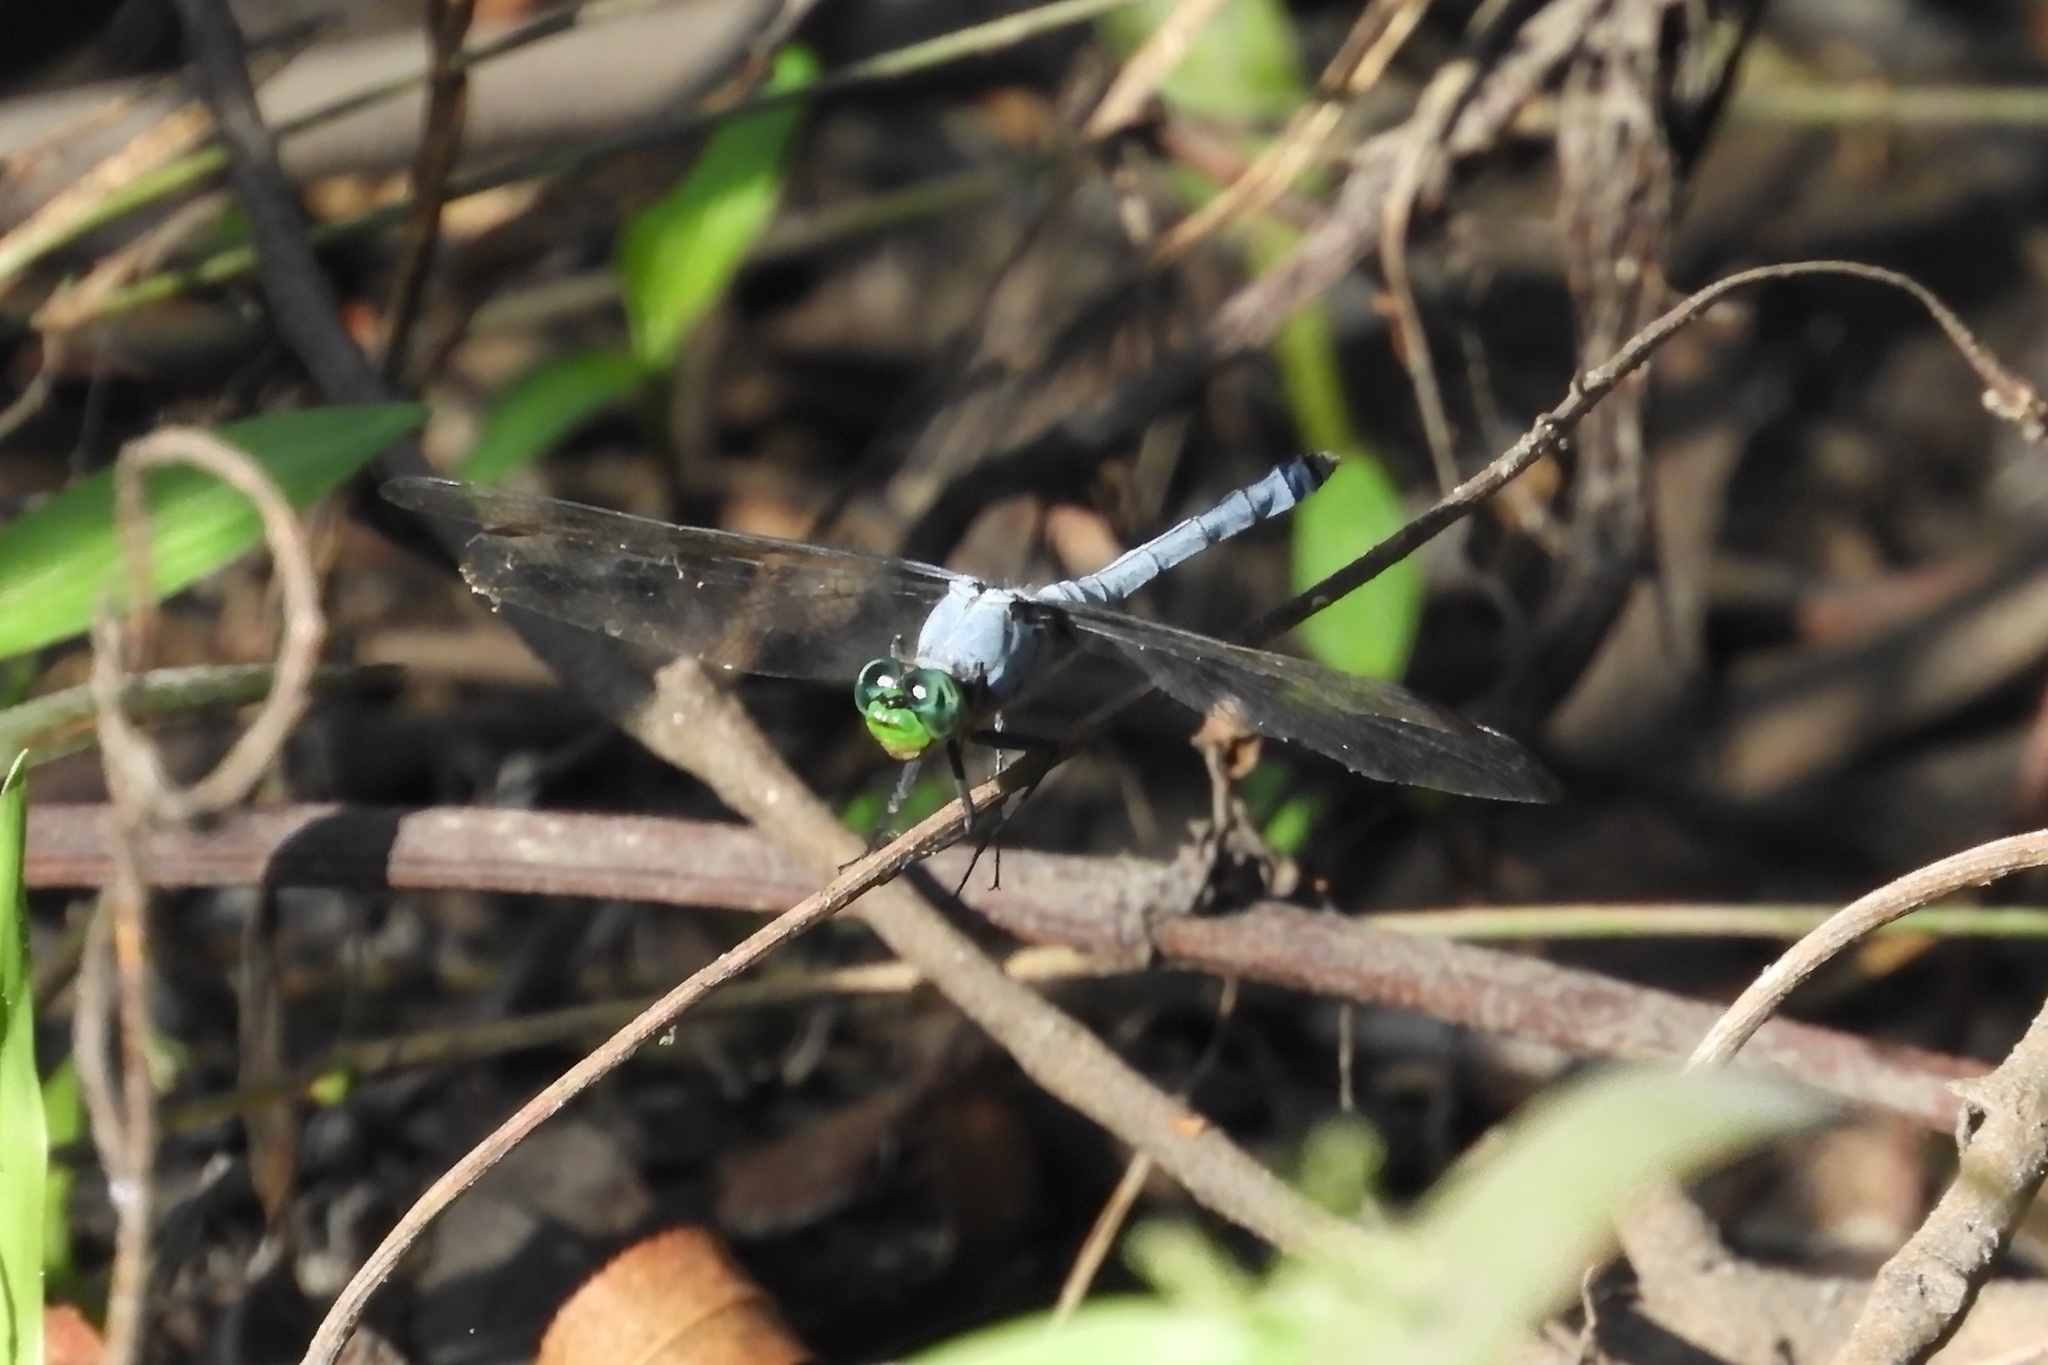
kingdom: Animalia
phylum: Arthropoda
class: Insecta
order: Odonata
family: Libellulidae
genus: Erythemis
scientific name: Erythemis simplicicollis
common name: Eastern pondhawk
